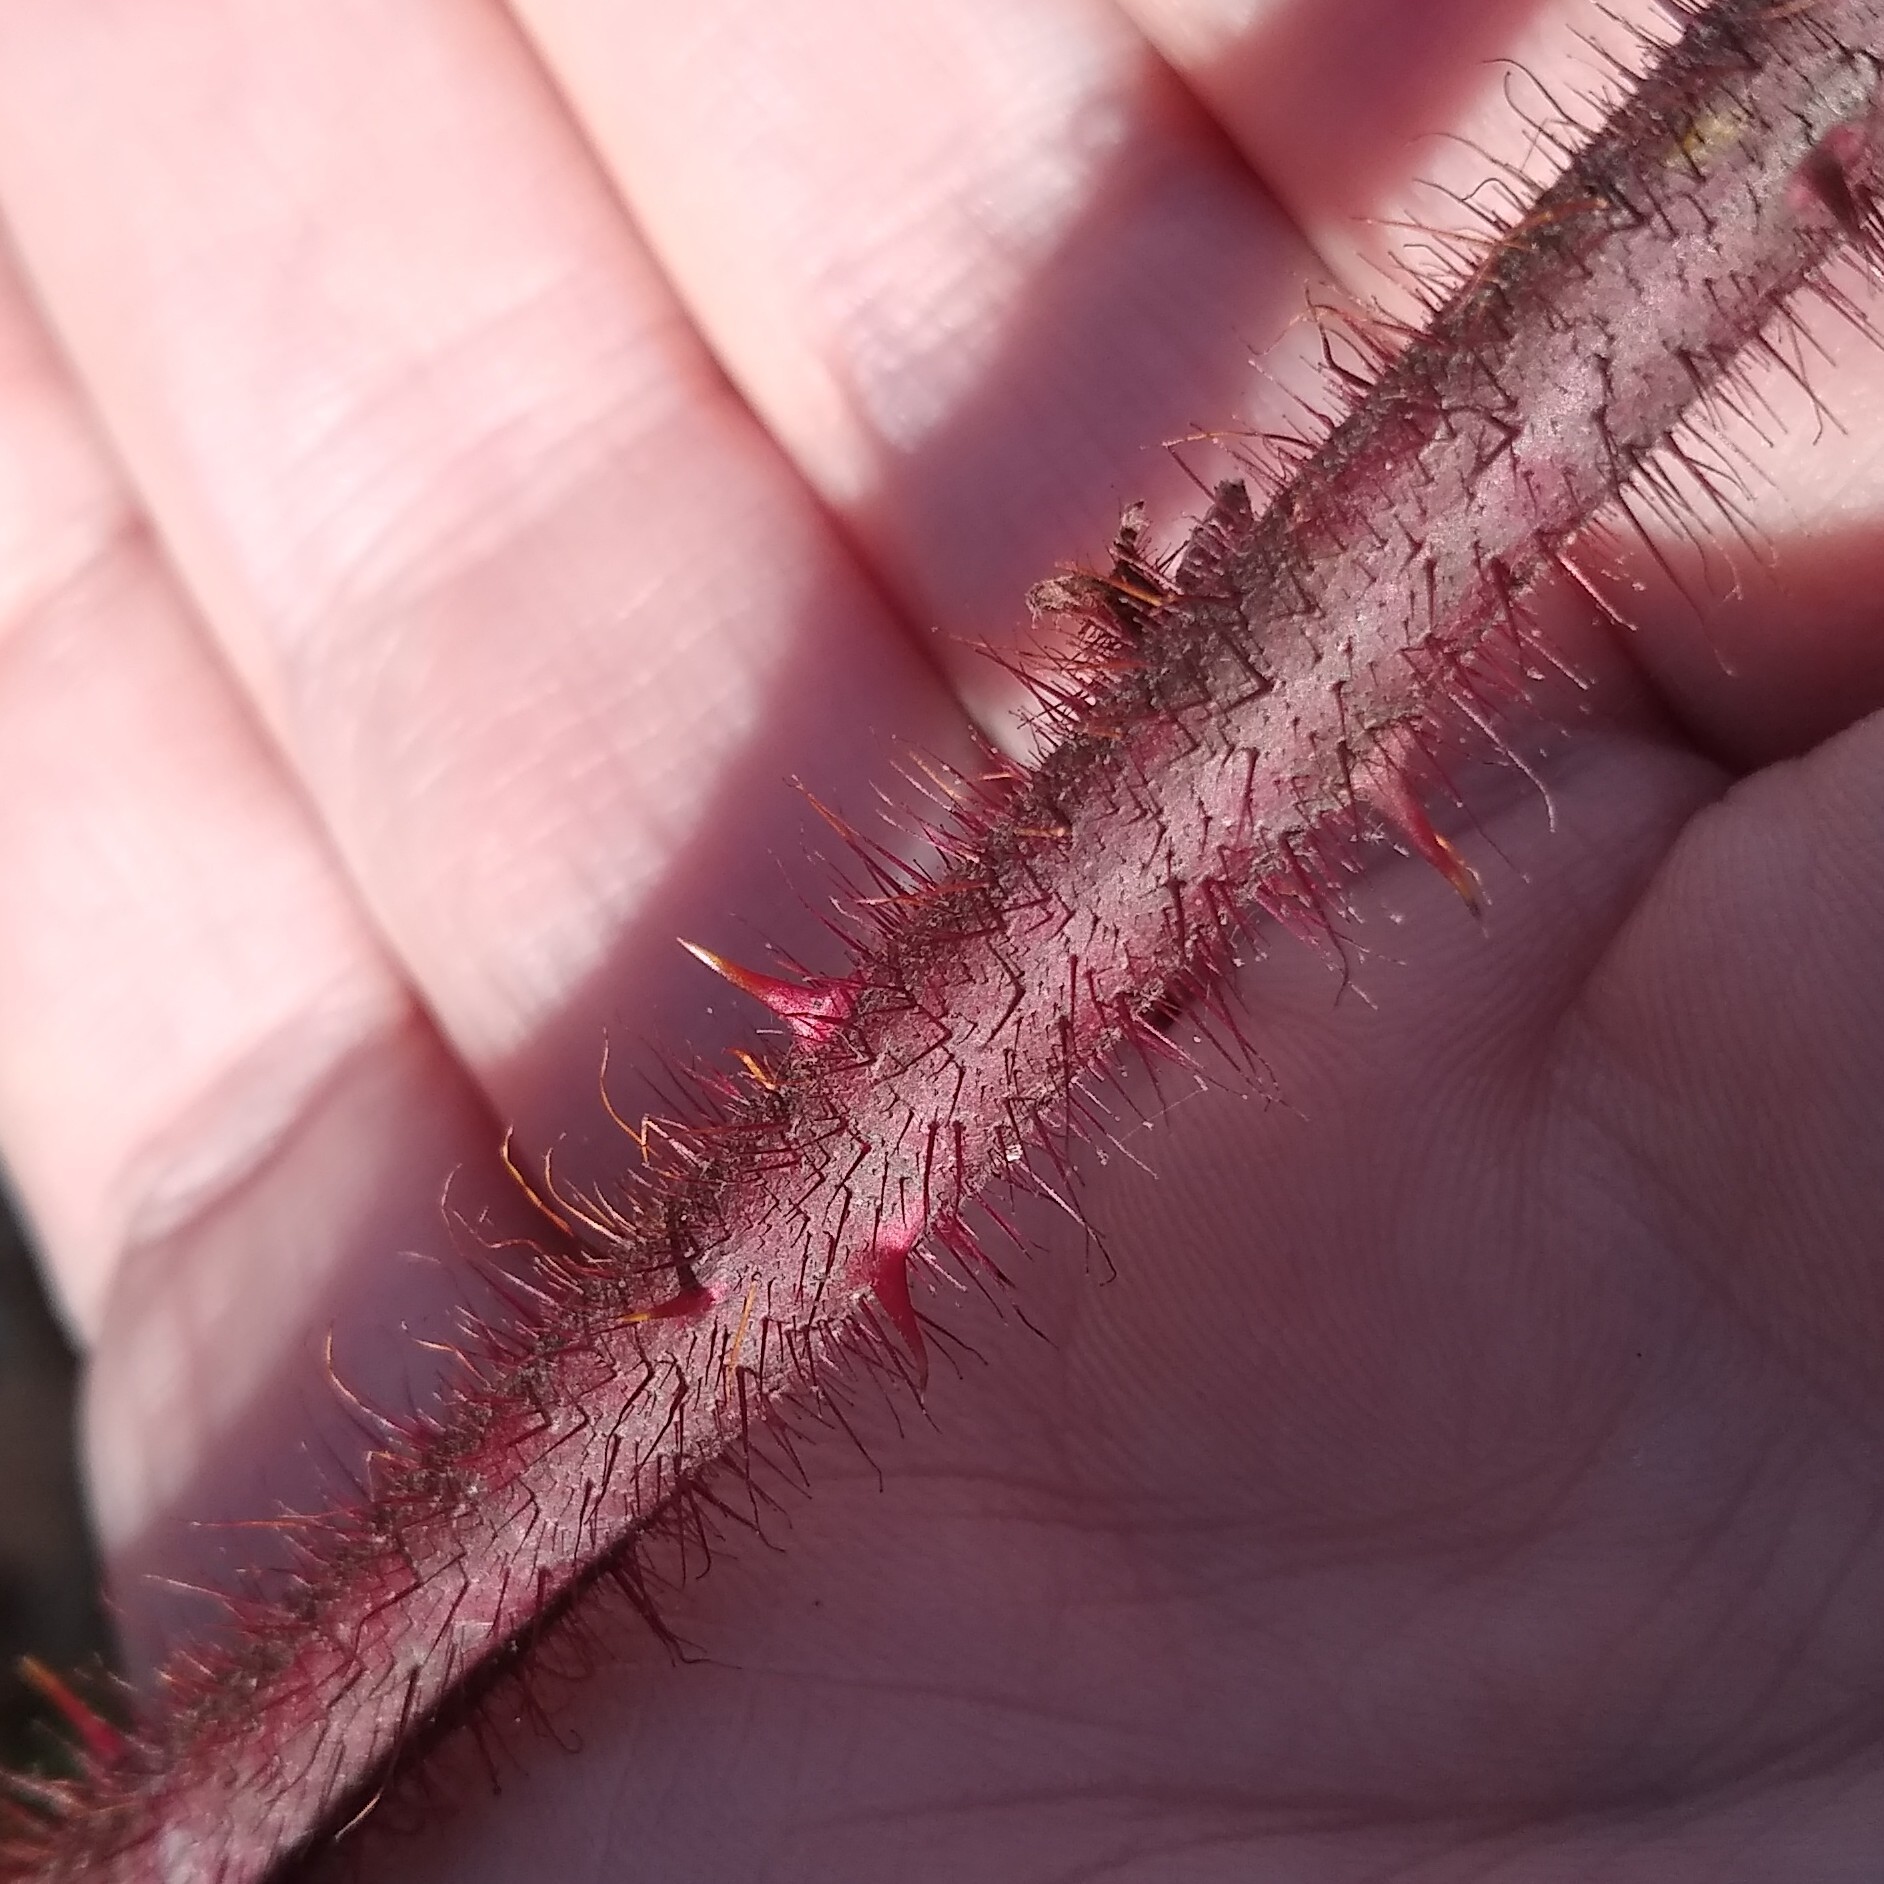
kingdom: Plantae
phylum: Tracheophyta
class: Magnoliopsida
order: Rosales
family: Rosaceae
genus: Rubus
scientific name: Rubus phoenicolasius
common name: Japanese wineberry
